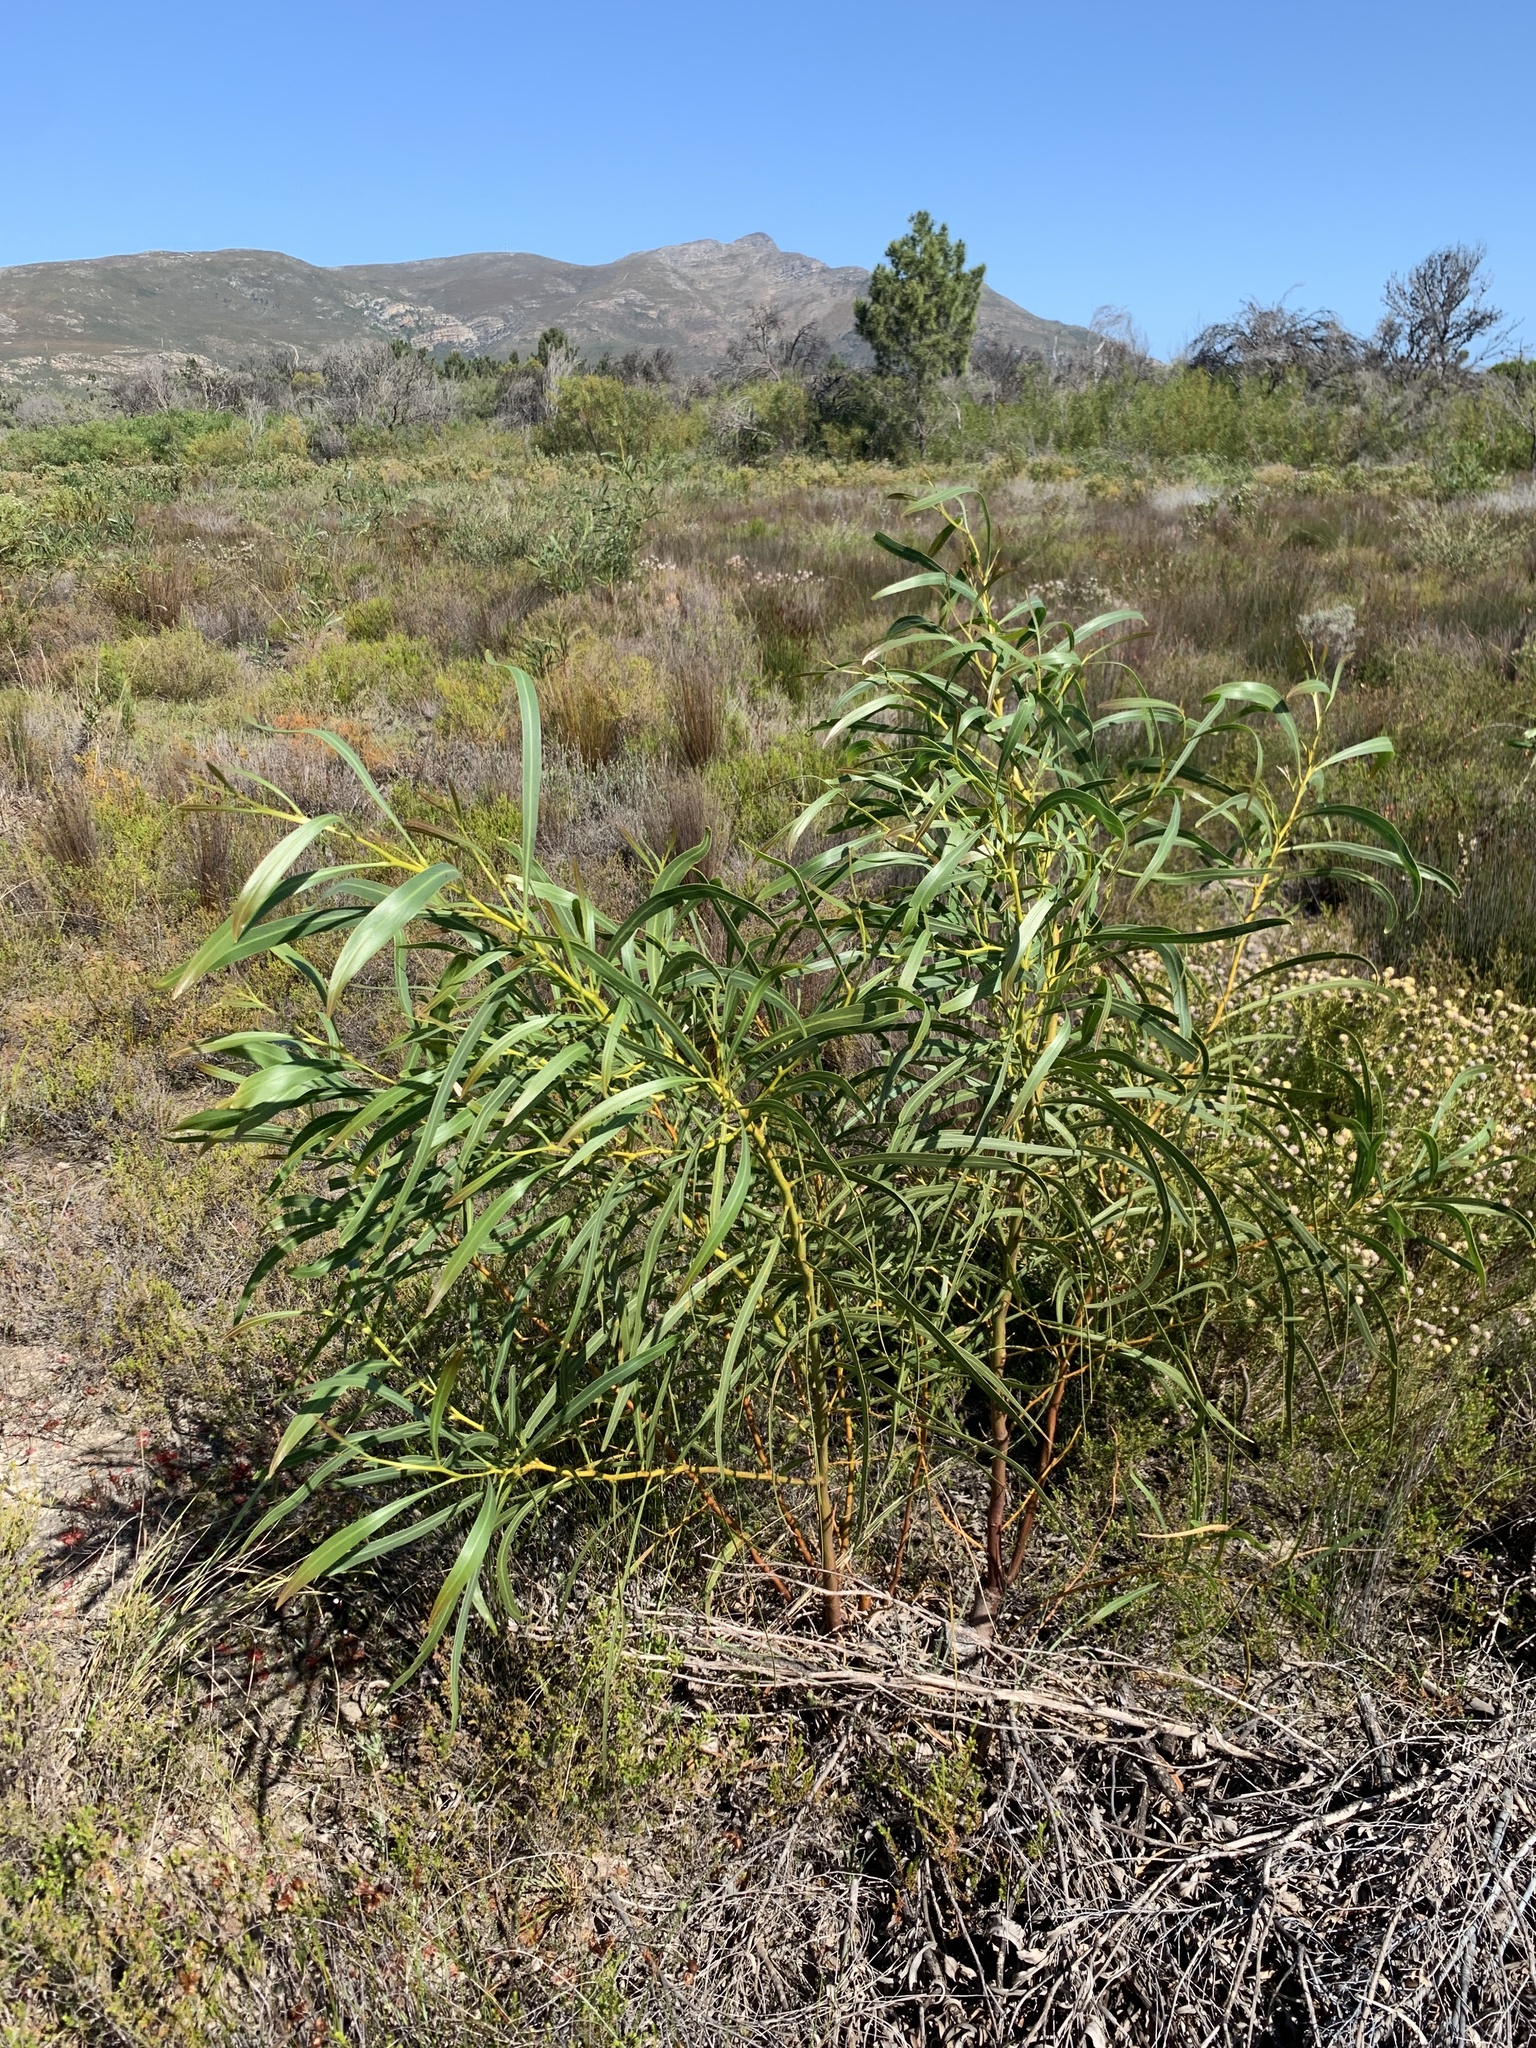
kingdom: Plantae
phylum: Tracheophyta
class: Magnoliopsida
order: Fabales
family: Fabaceae
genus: Acacia
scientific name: Acacia saligna
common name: Orange wattle
